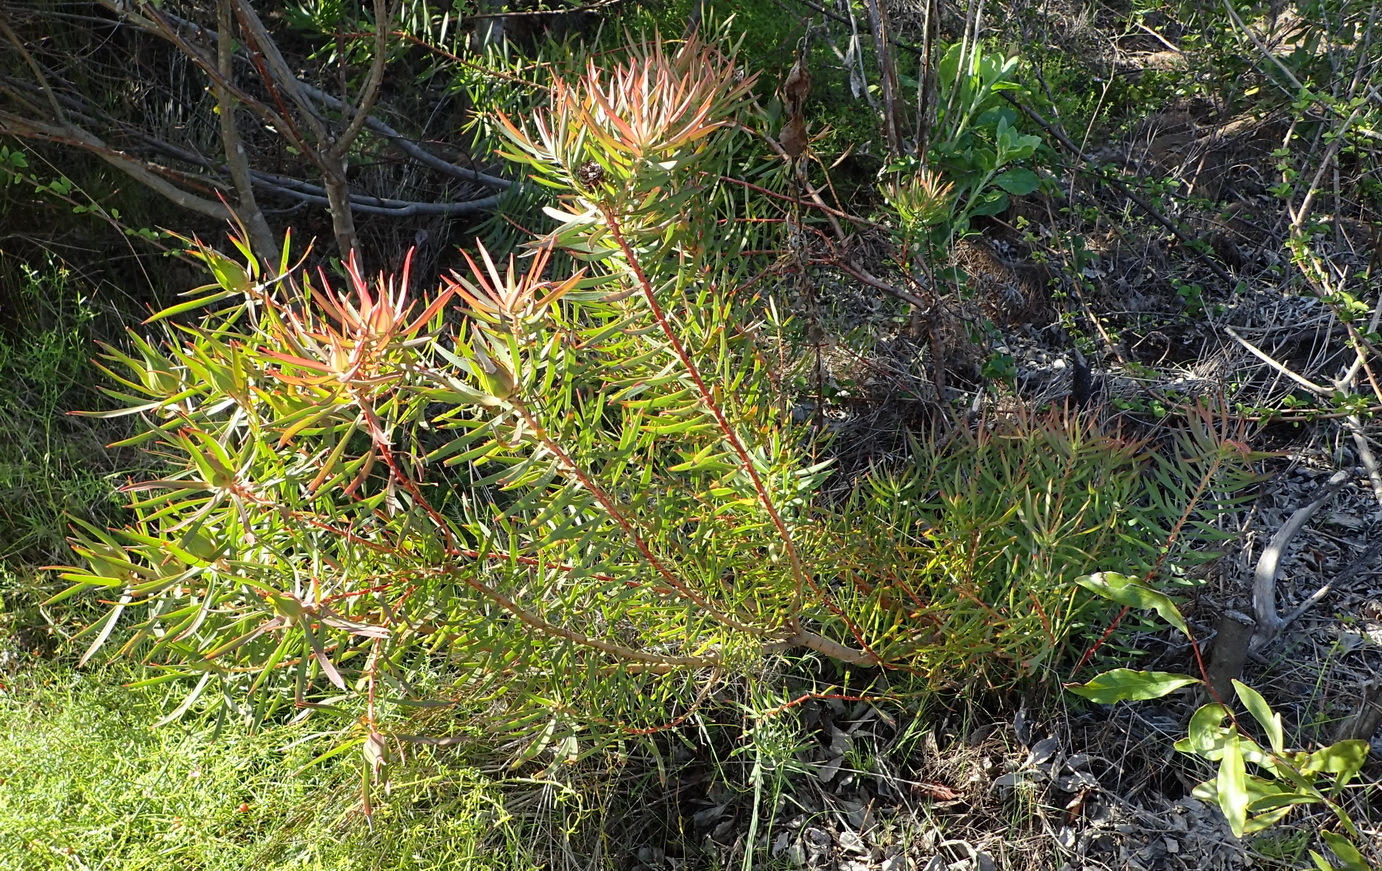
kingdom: Plantae
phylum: Tracheophyta
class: Magnoliopsida
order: Proteales
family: Proteaceae
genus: Leucadendron
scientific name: Leucadendron salignum
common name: Common sunshine conebush
